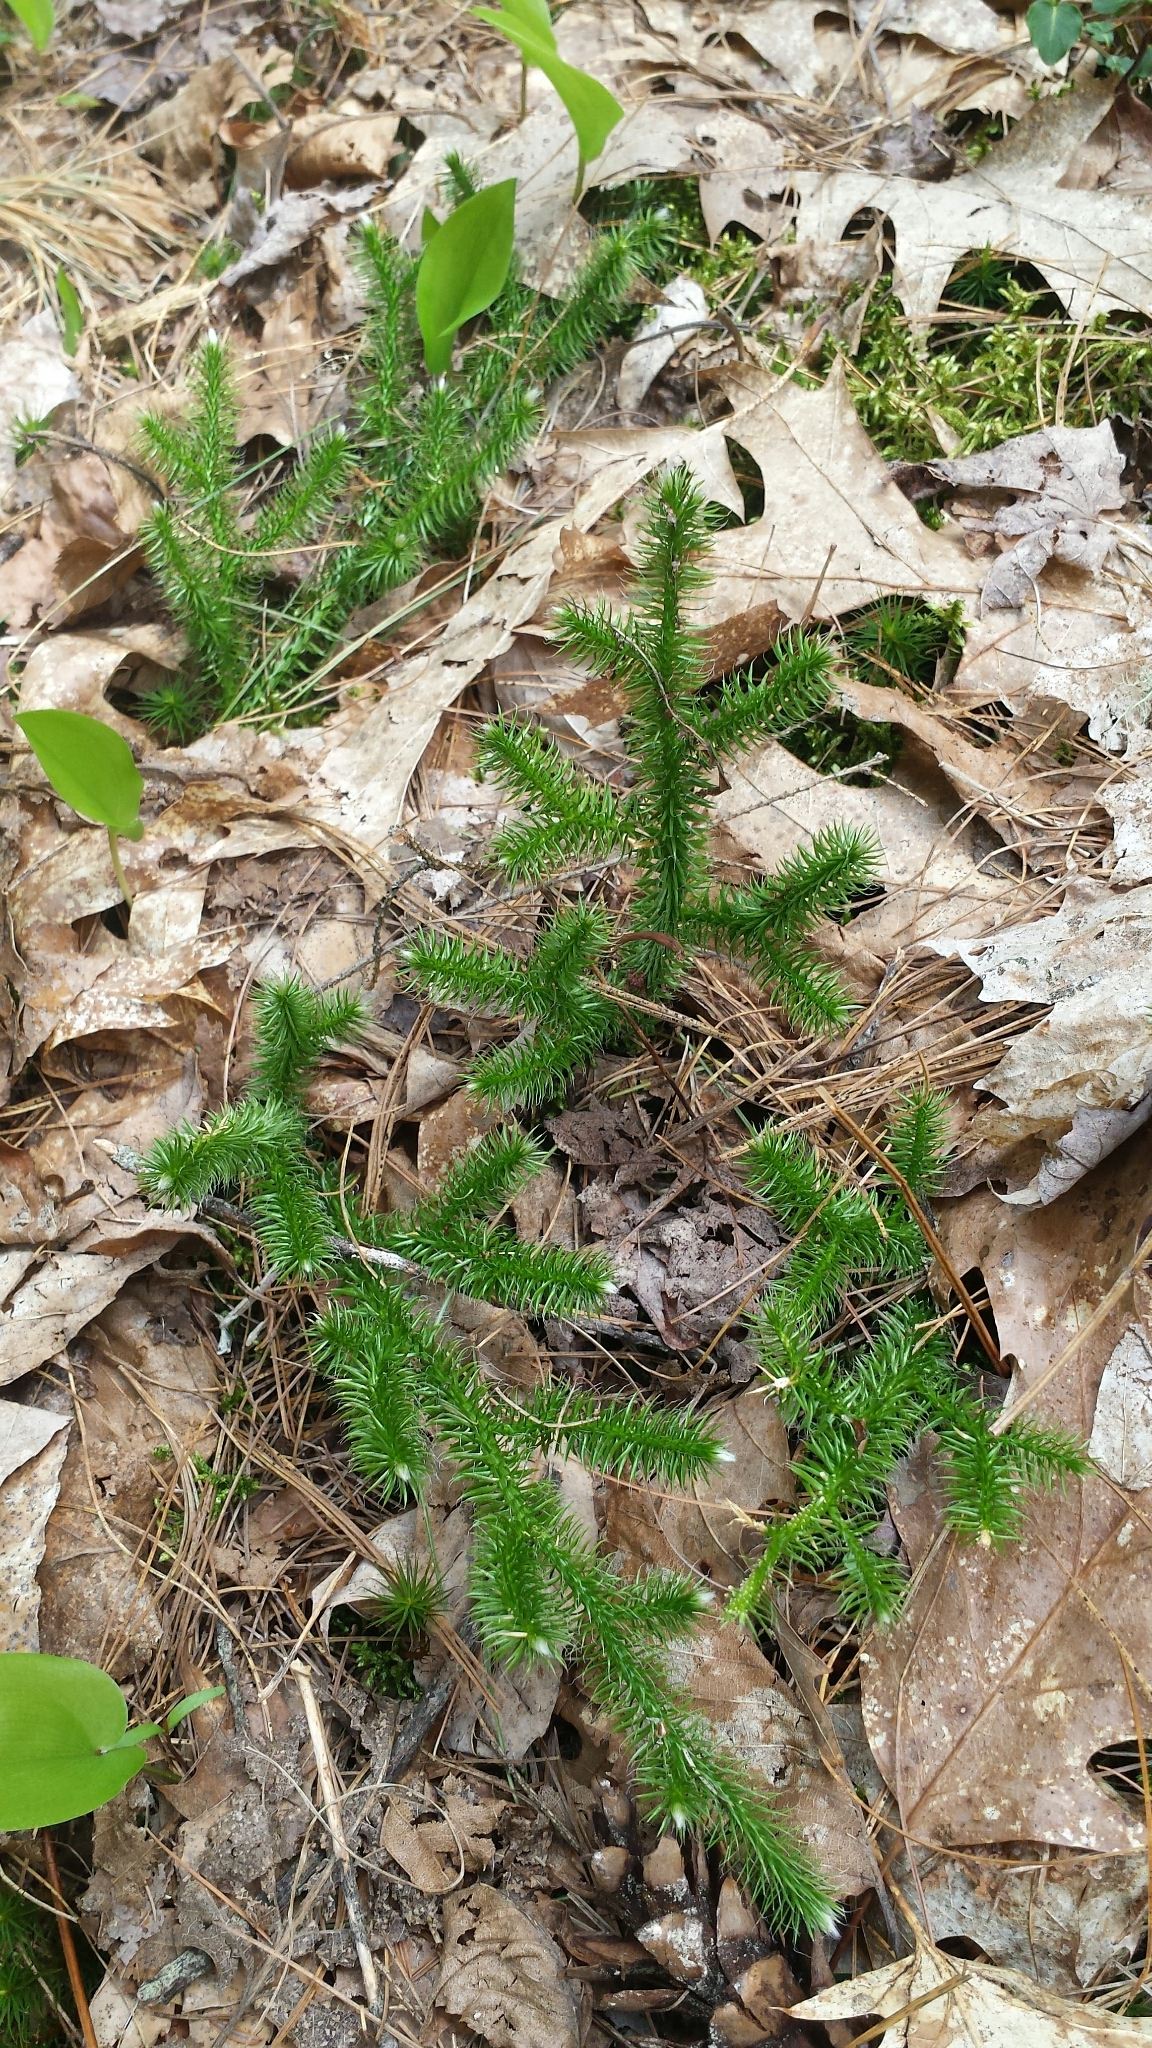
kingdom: Plantae
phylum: Tracheophyta
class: Lycopodiopsida
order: Lycopodiales
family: Lycopodiaceae
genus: Lycopodium
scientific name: Lycopodium clavatum
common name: Stag's-horn clubmoss
